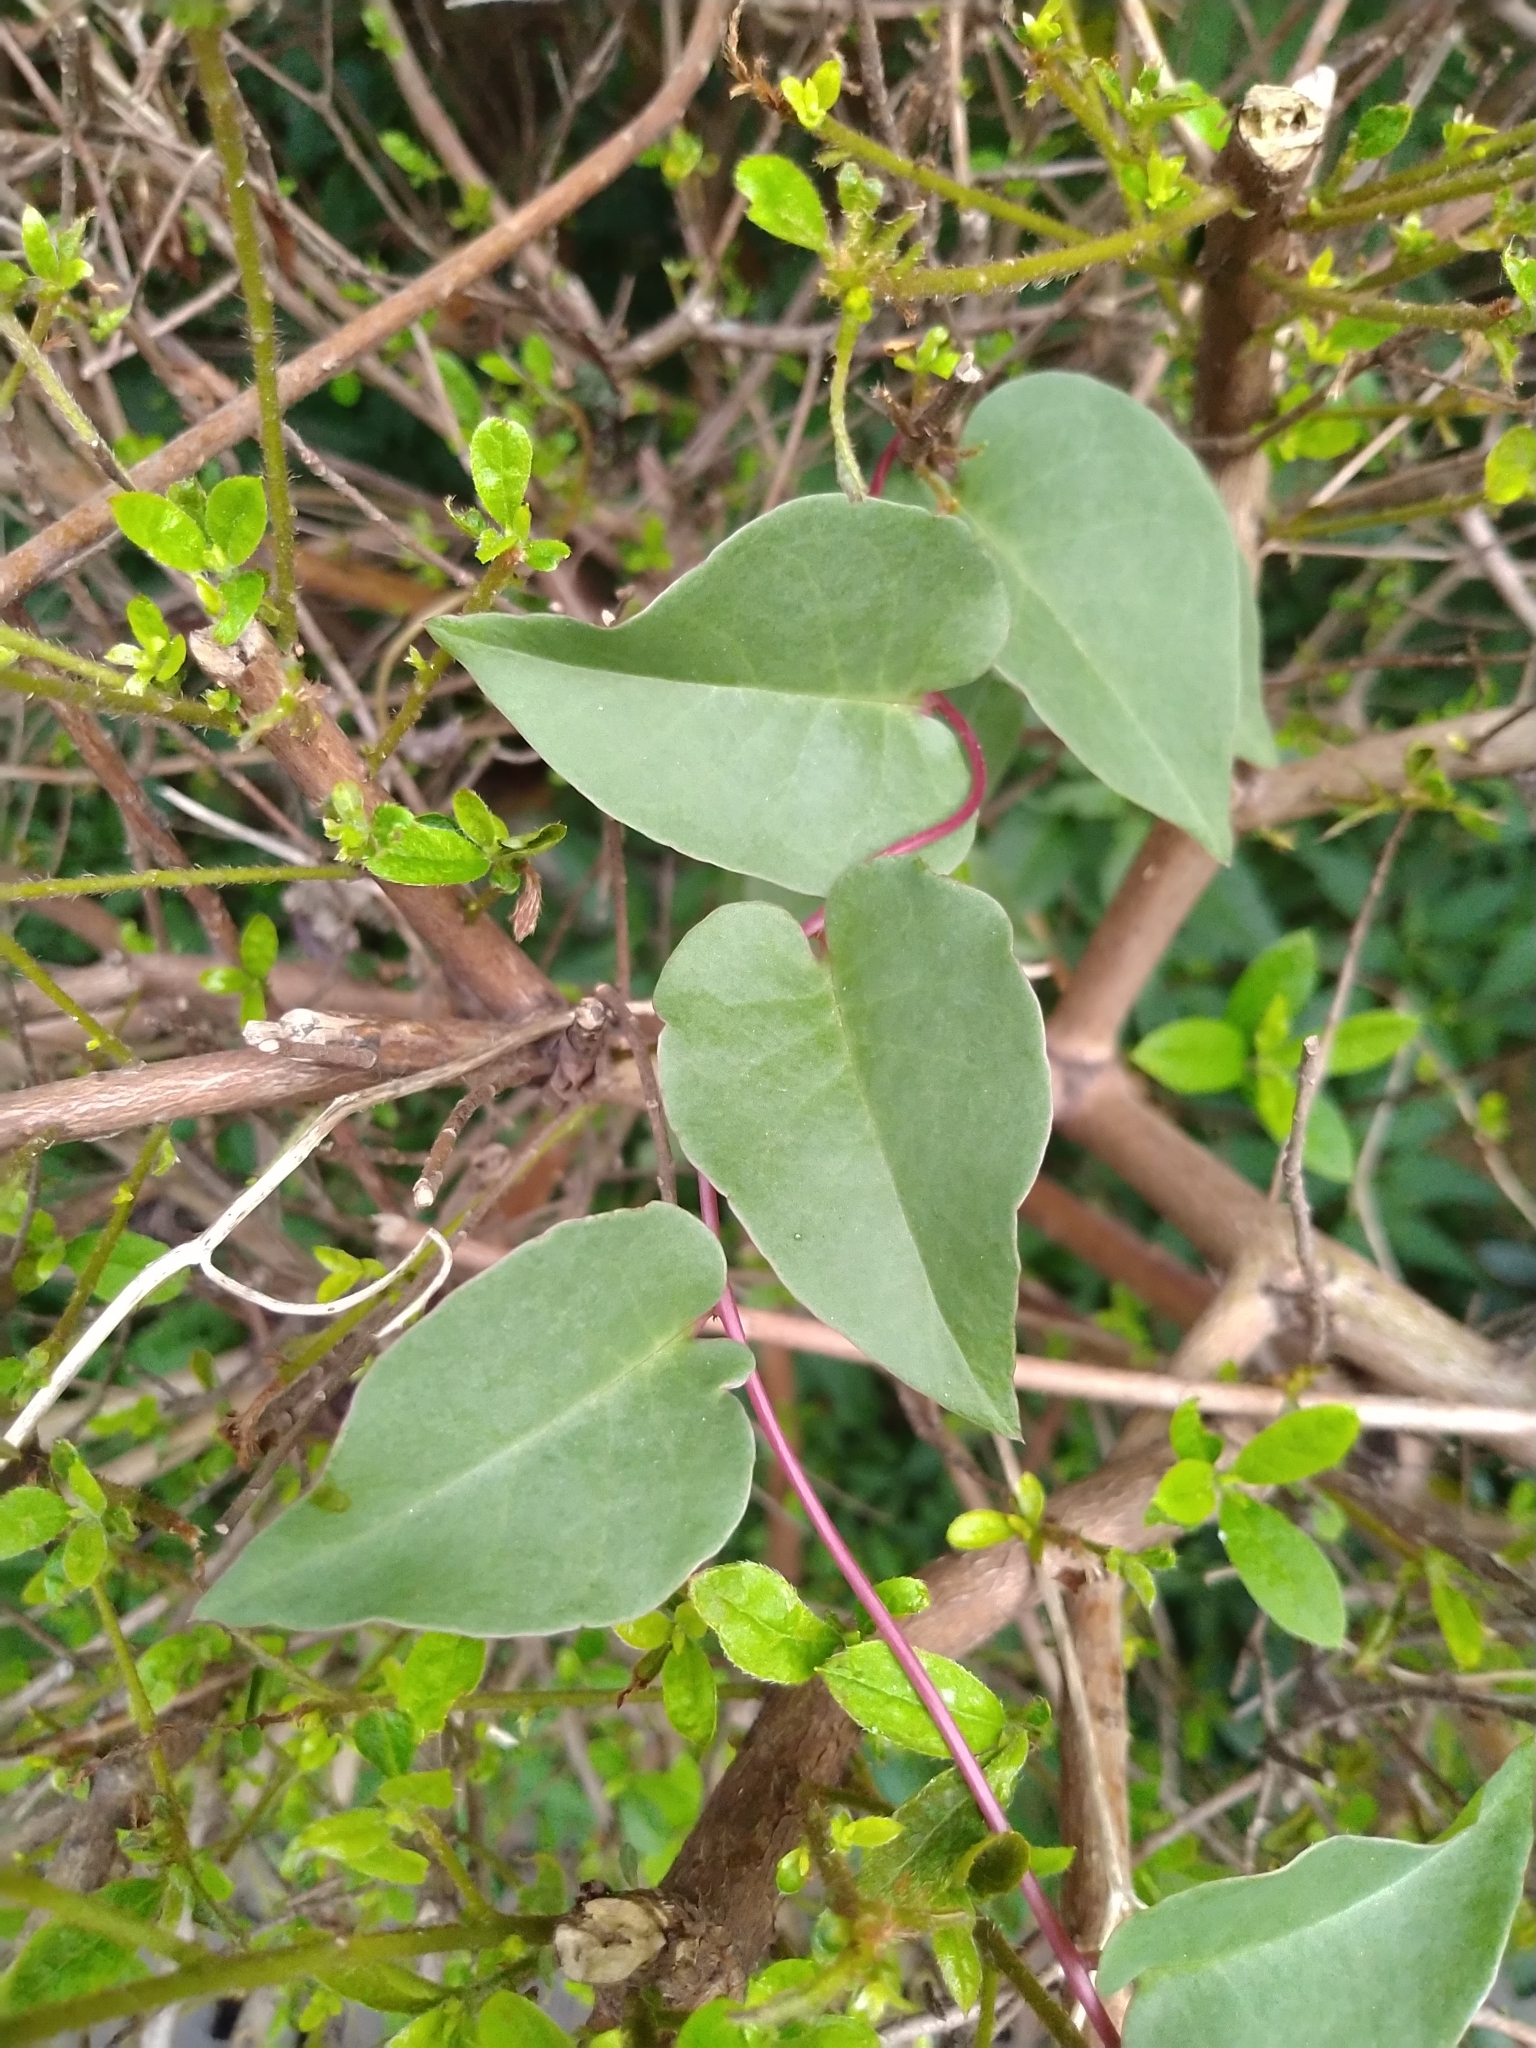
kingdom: Plantae
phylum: Tracheophyta
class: Magnoliopsida
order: Caryophyllales
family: Basellaceae
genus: Anredera
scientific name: Anredera cordifolia
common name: Heartleaf madeiravine
